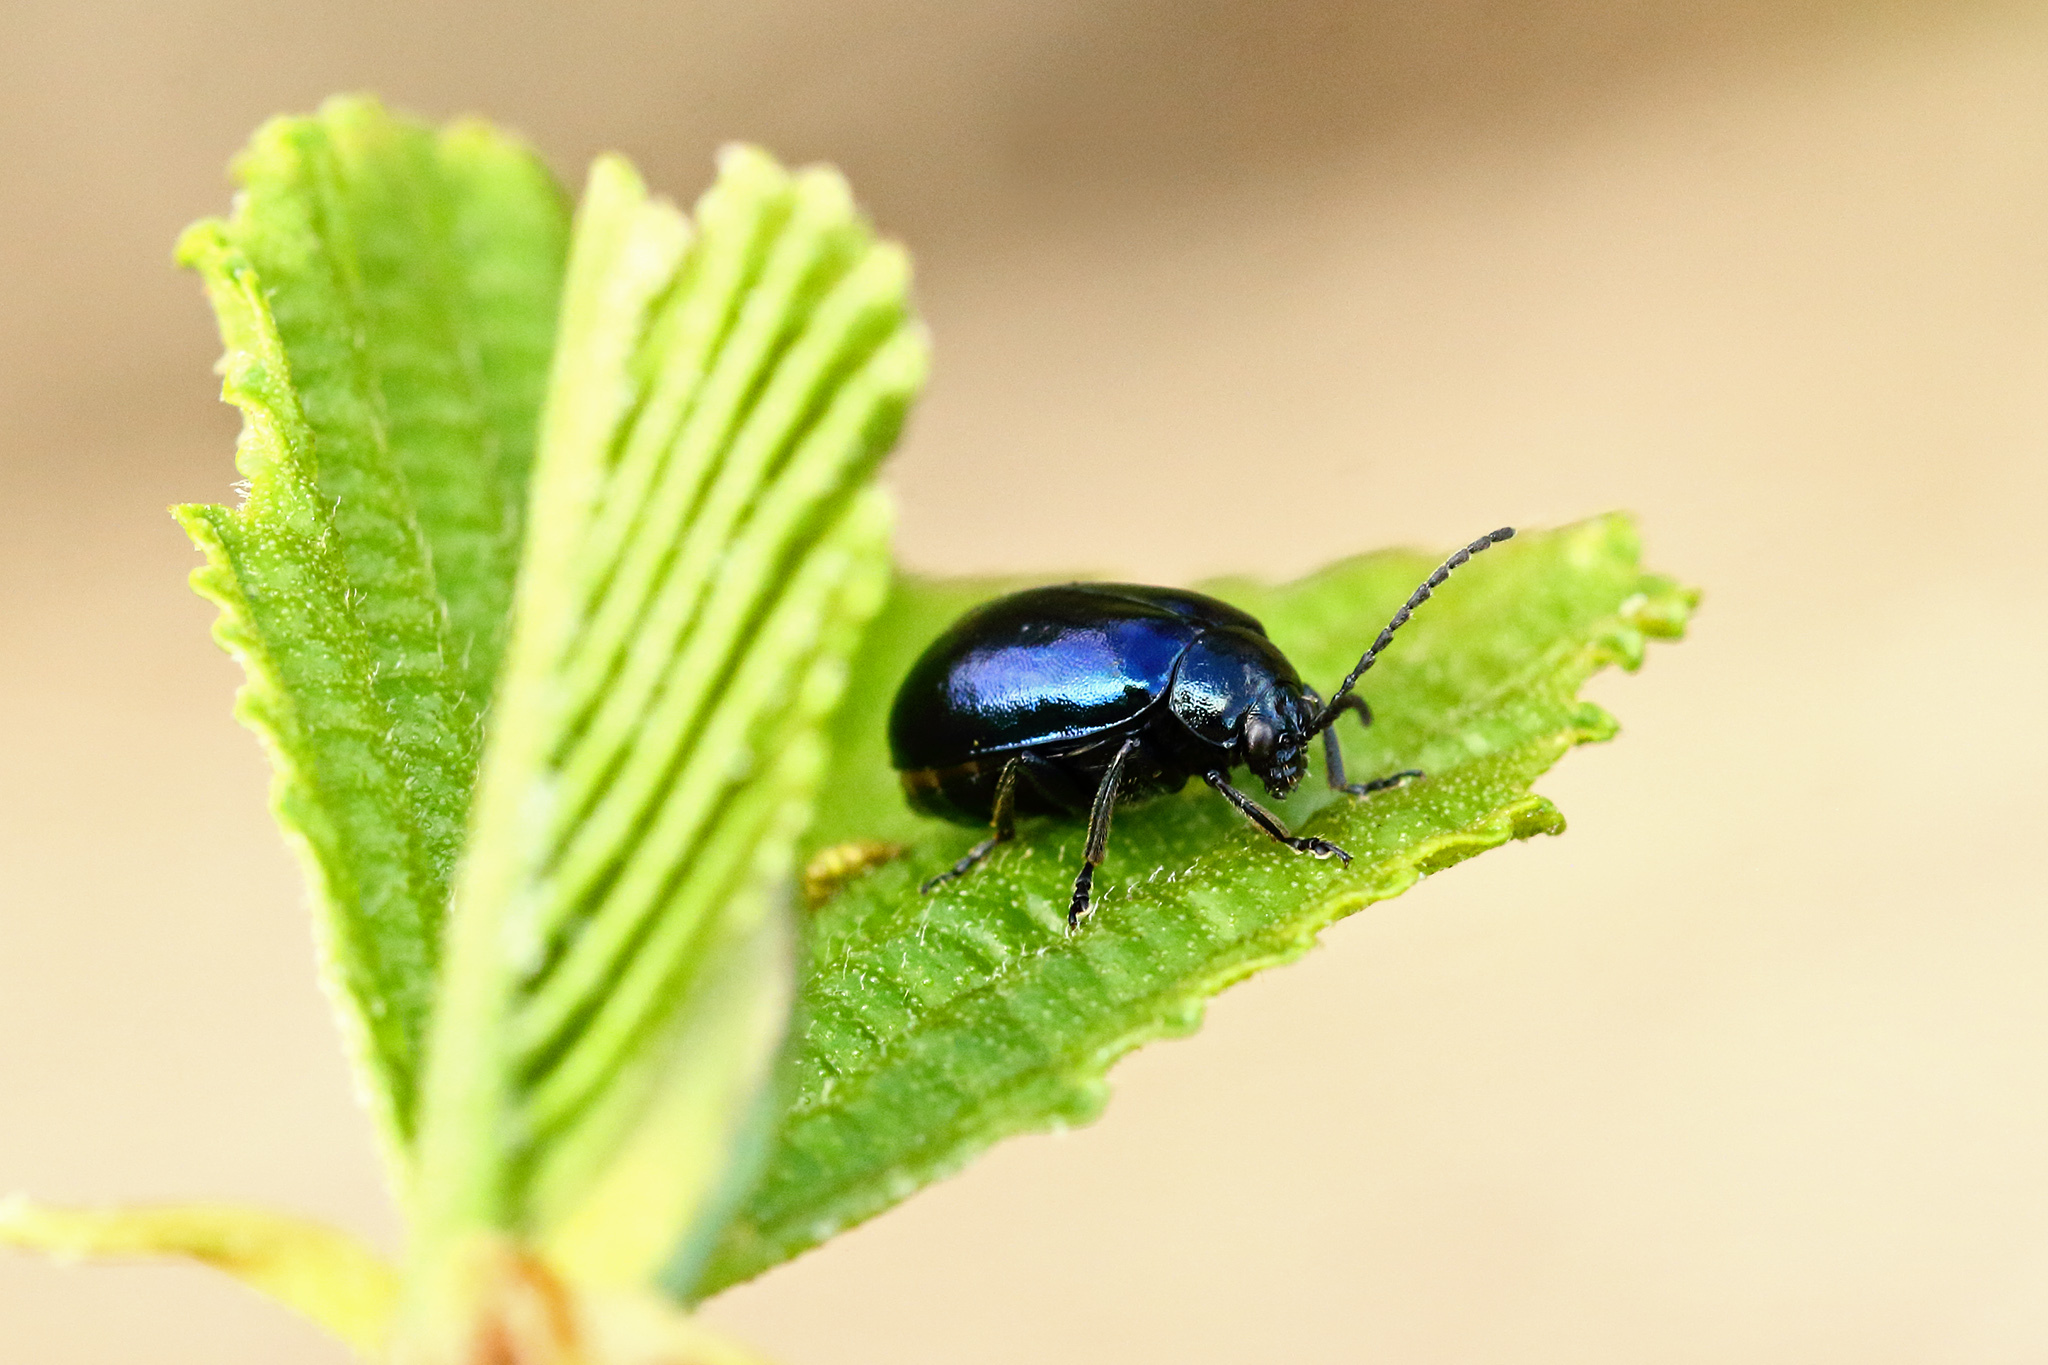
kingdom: Animalia
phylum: Arthropoda
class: Insecta
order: Coleoptera
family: Chrysomelidae
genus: Agelastica
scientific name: Agelastica alni
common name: Alder leaf beetle
